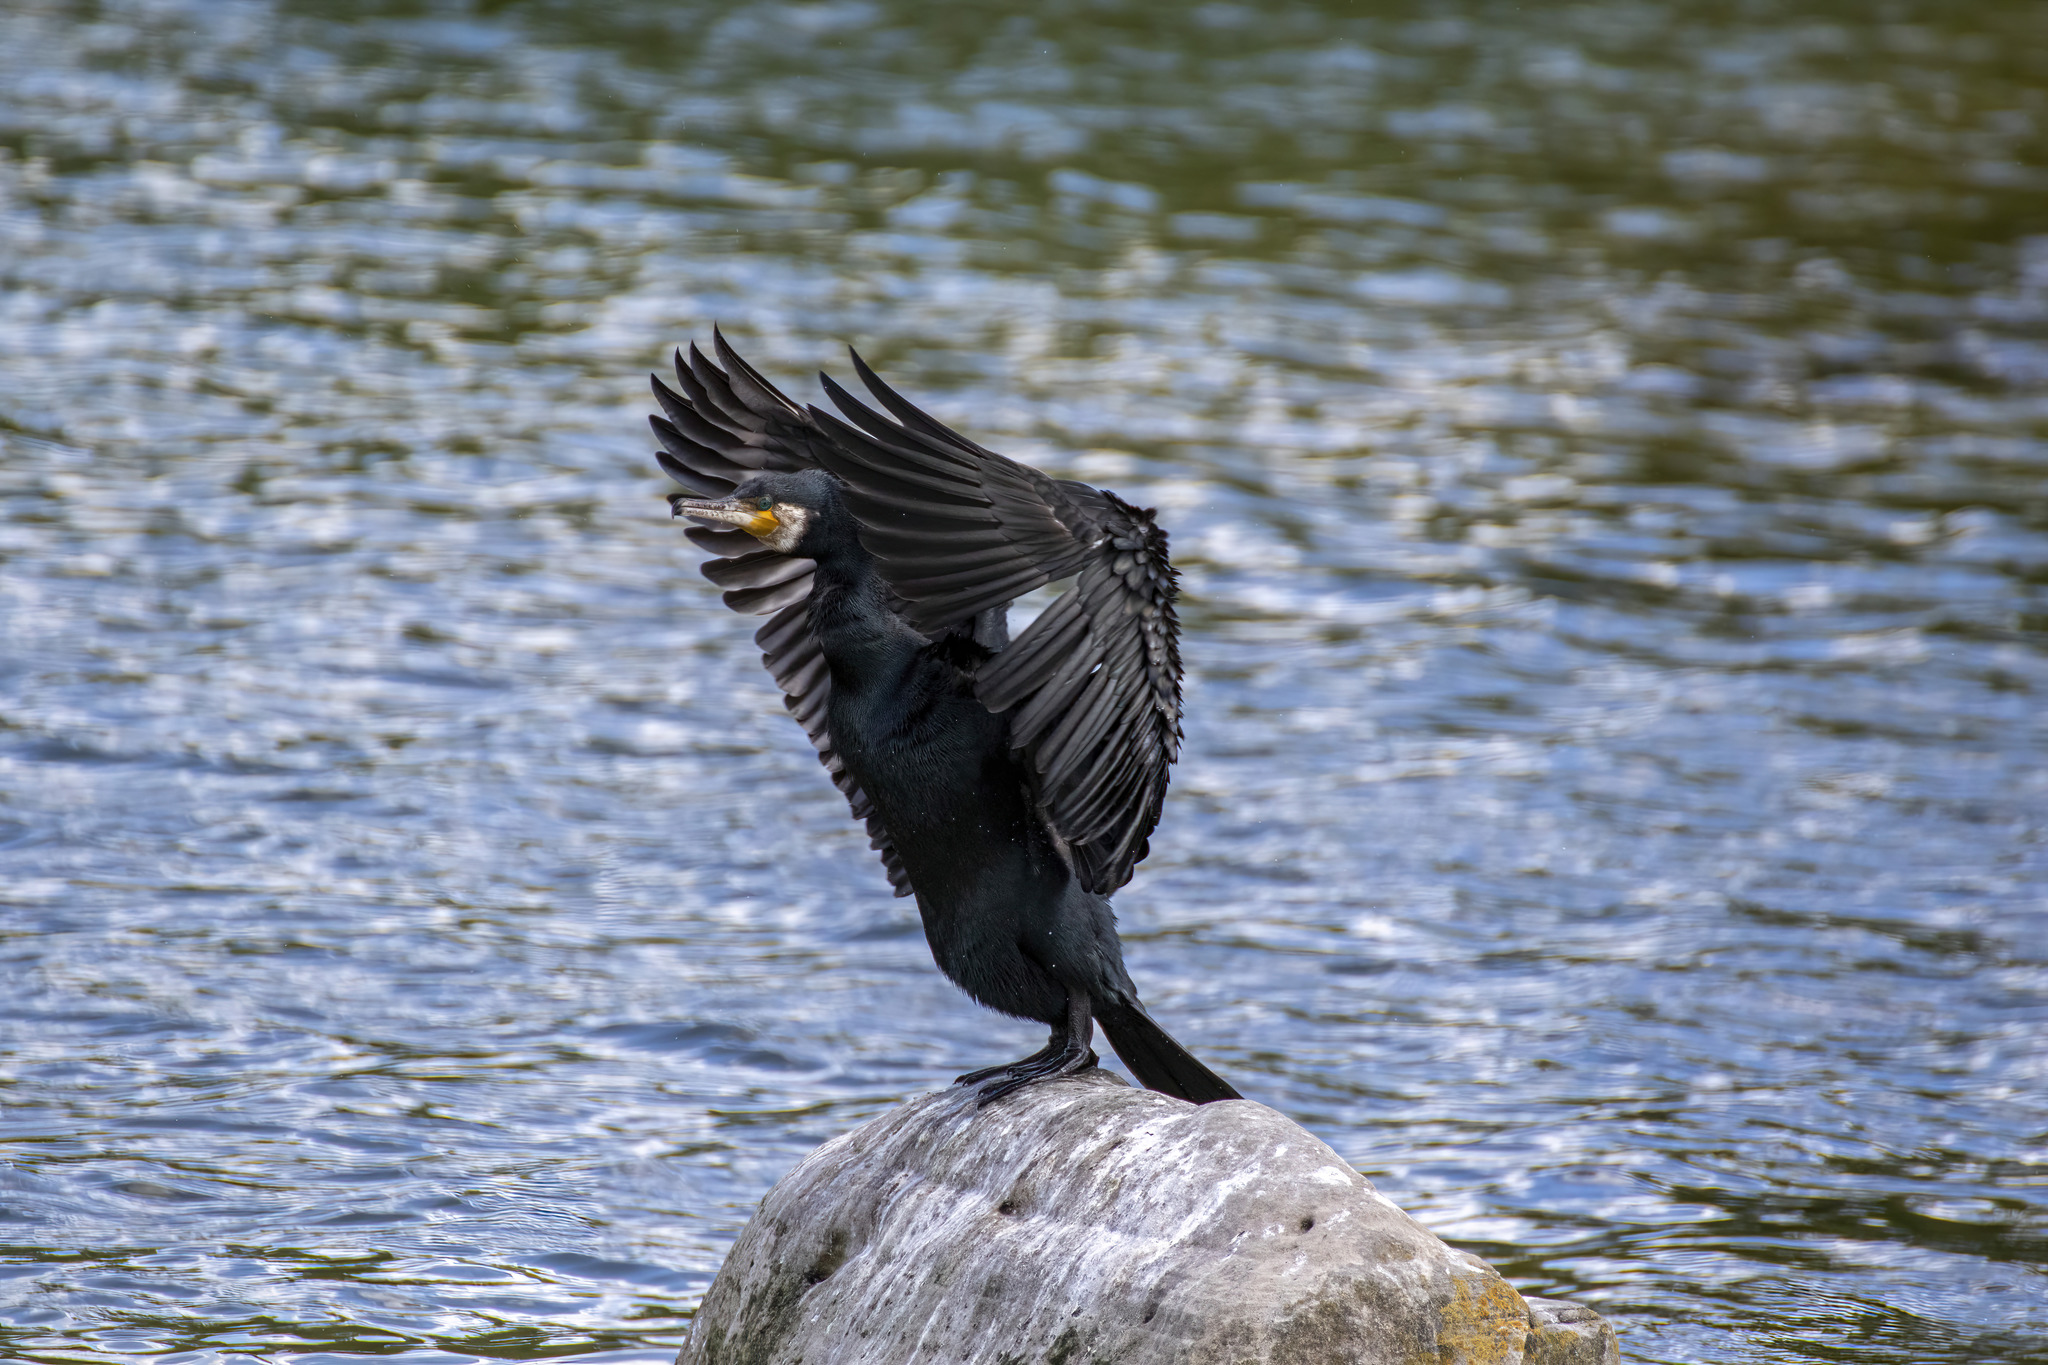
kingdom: Animalia
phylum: Chordata
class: Aves
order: Suliformes
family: Phalacrocoracidae
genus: Phalacrocorax
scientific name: Phalacrocorax carbo
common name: Great cormorant
